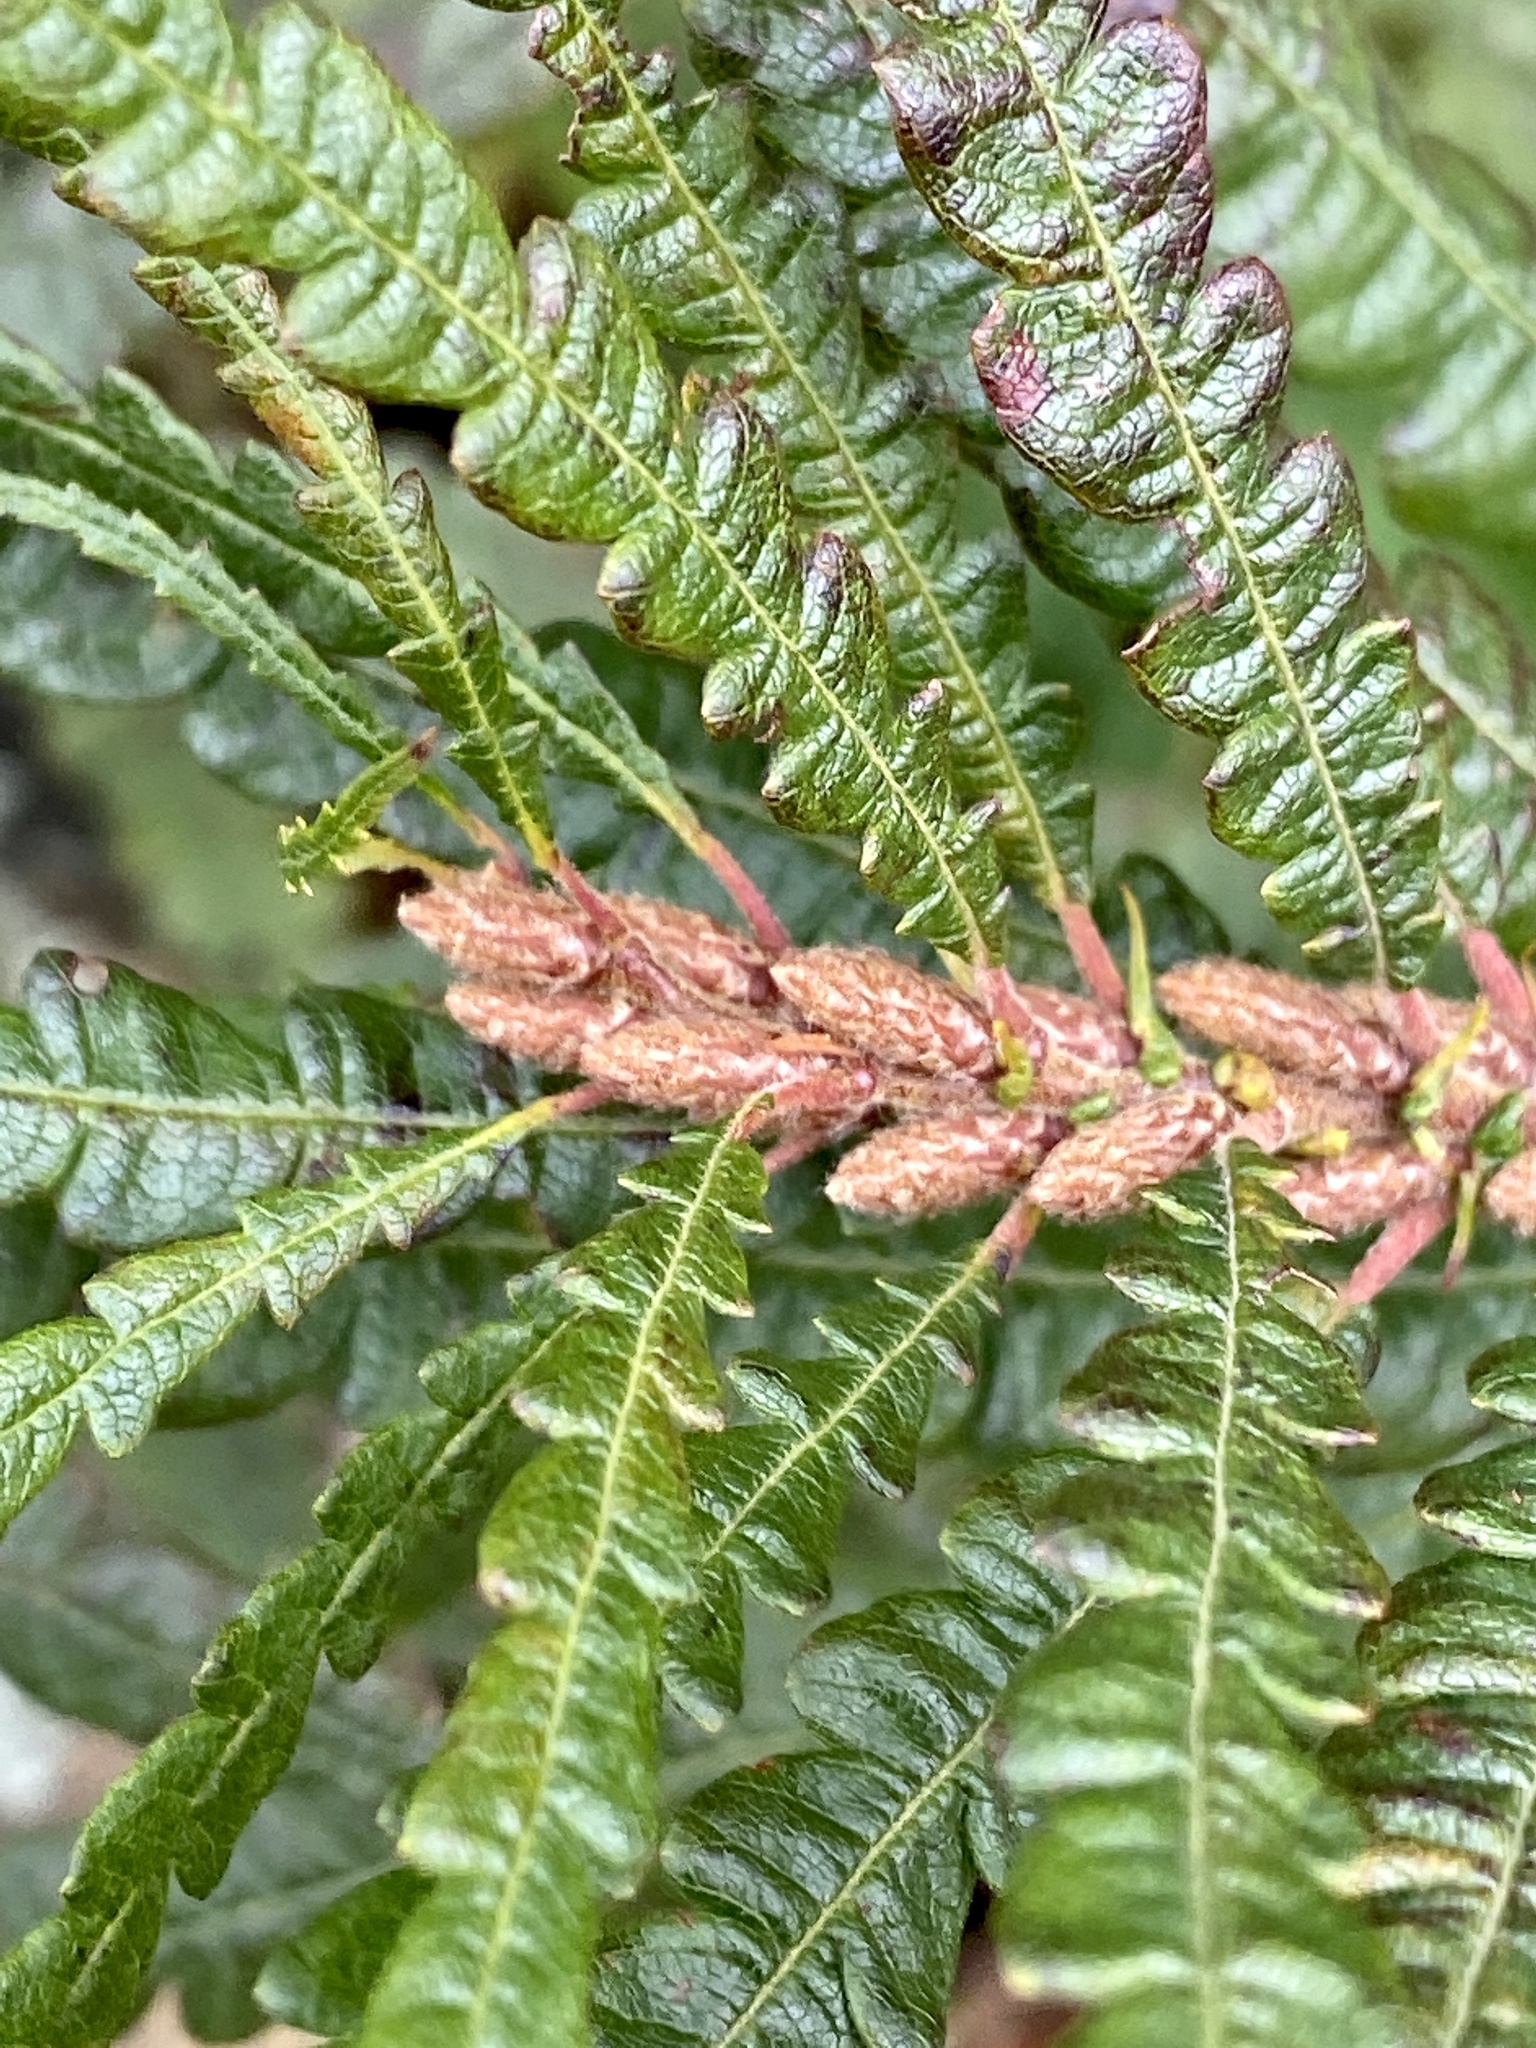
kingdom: Plantae
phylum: Tracheophyta
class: Magnoliopsida
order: Fagales
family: Myricaceae
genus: Comptonia
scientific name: Comptonia peregrina
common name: Sweet-fern
